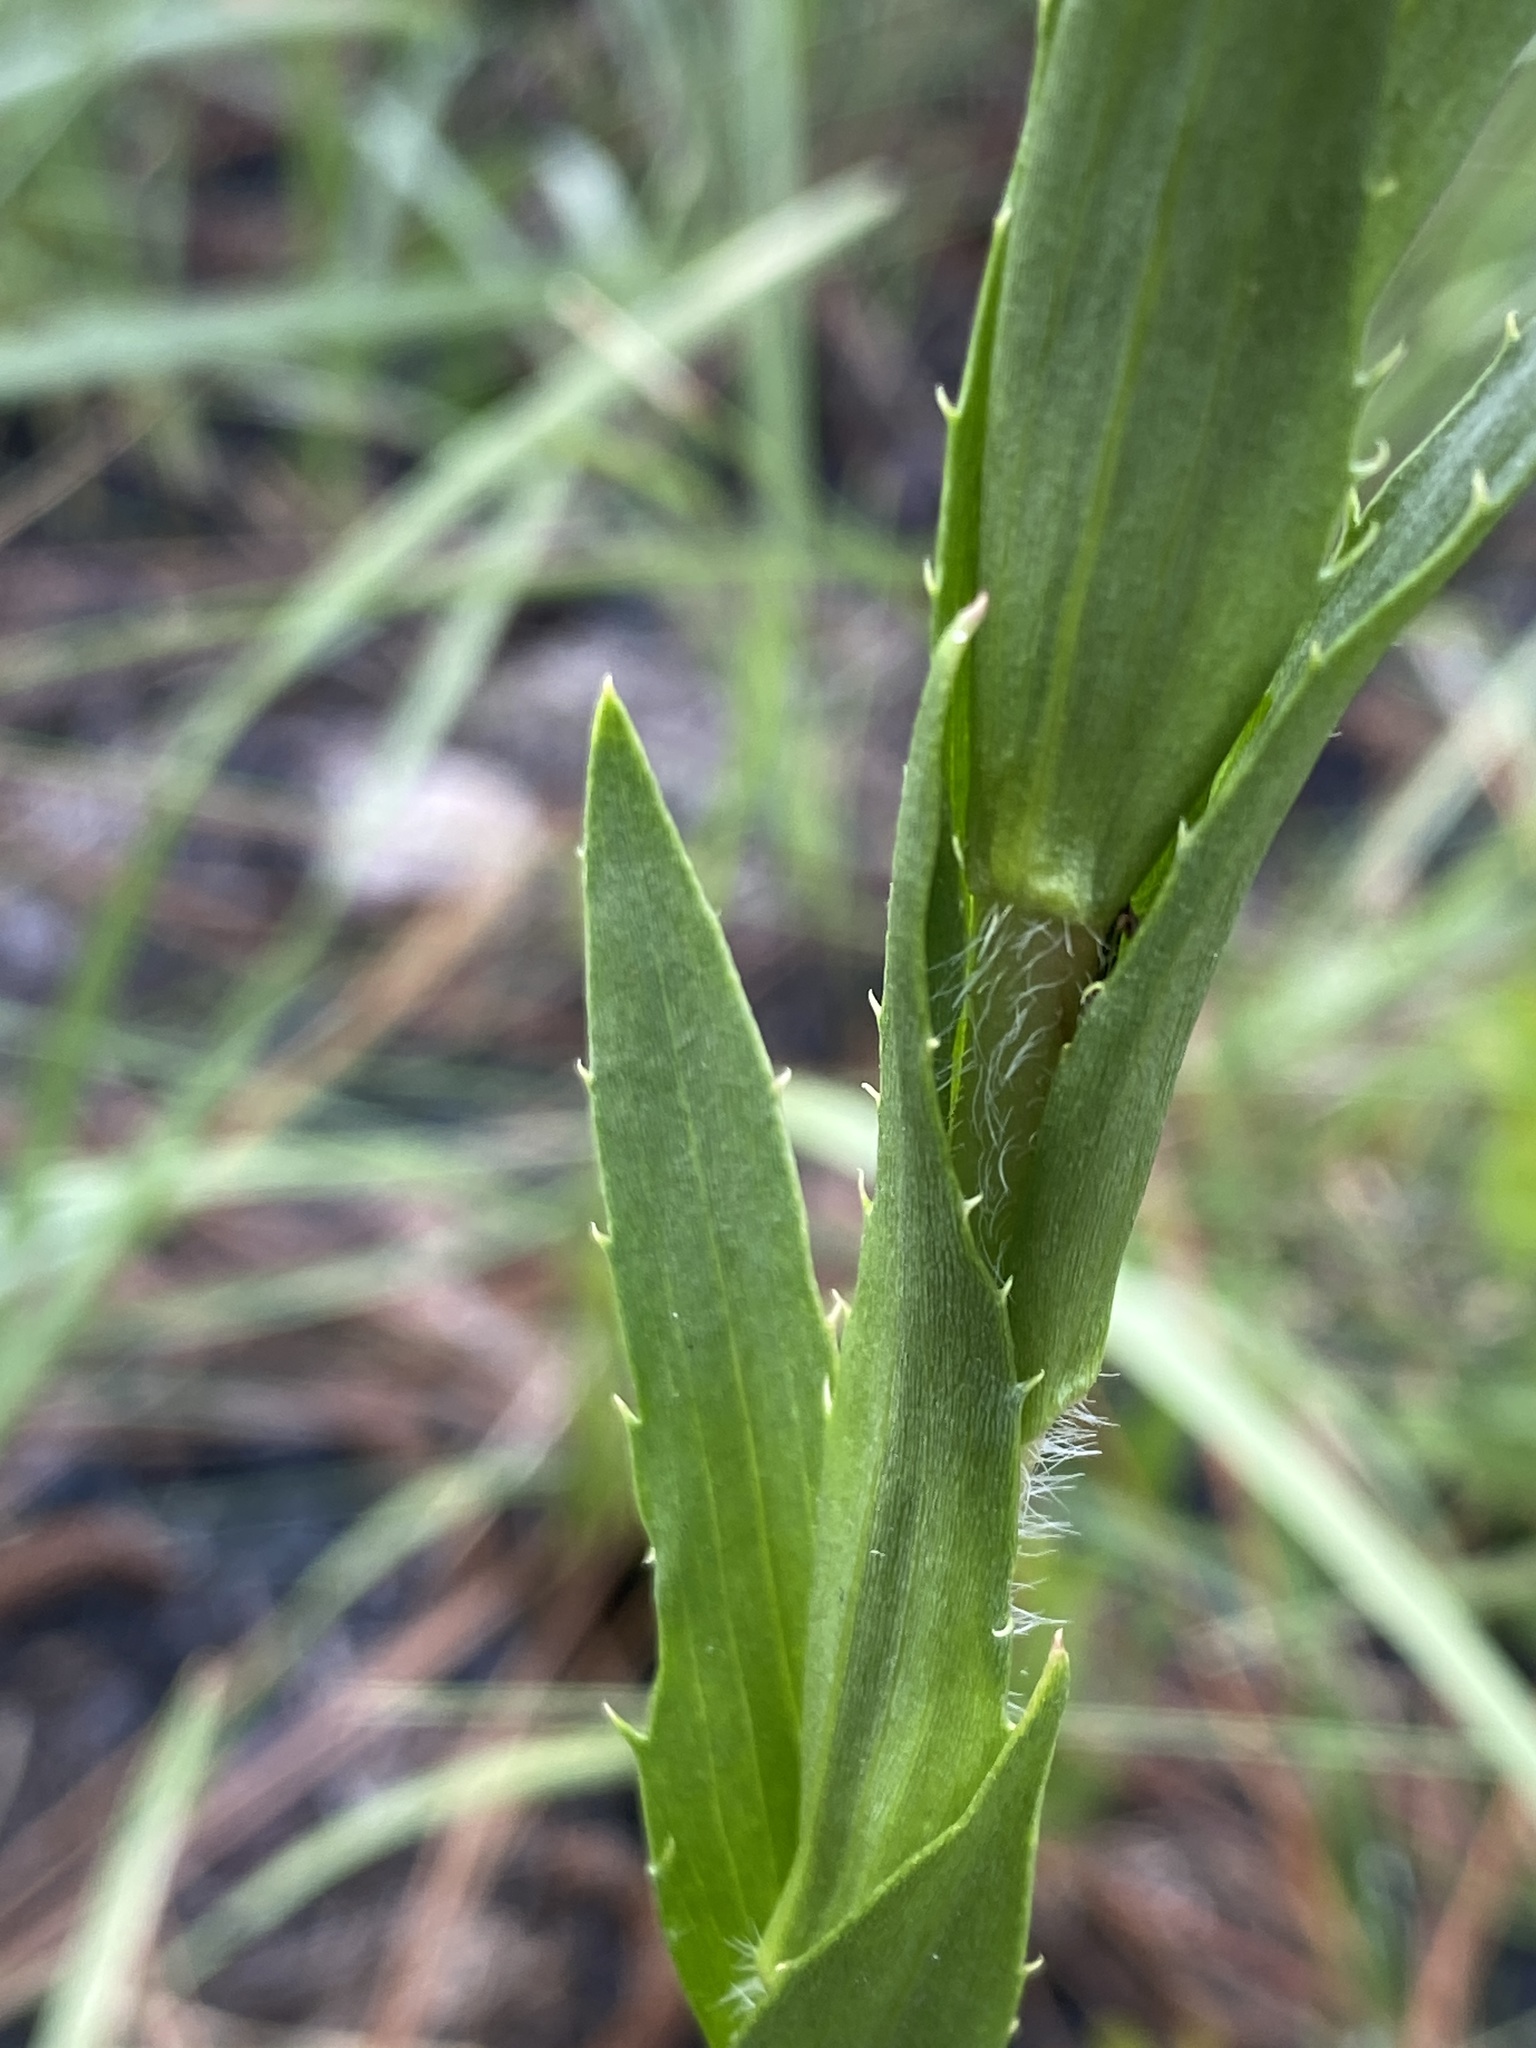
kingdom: Plantae
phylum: Tracheophyta
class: Magnoliopsida
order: Asterales
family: Asteraceae
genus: Eurybia
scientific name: Eurybia eryngiifolia
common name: Thistle-leaf aster
